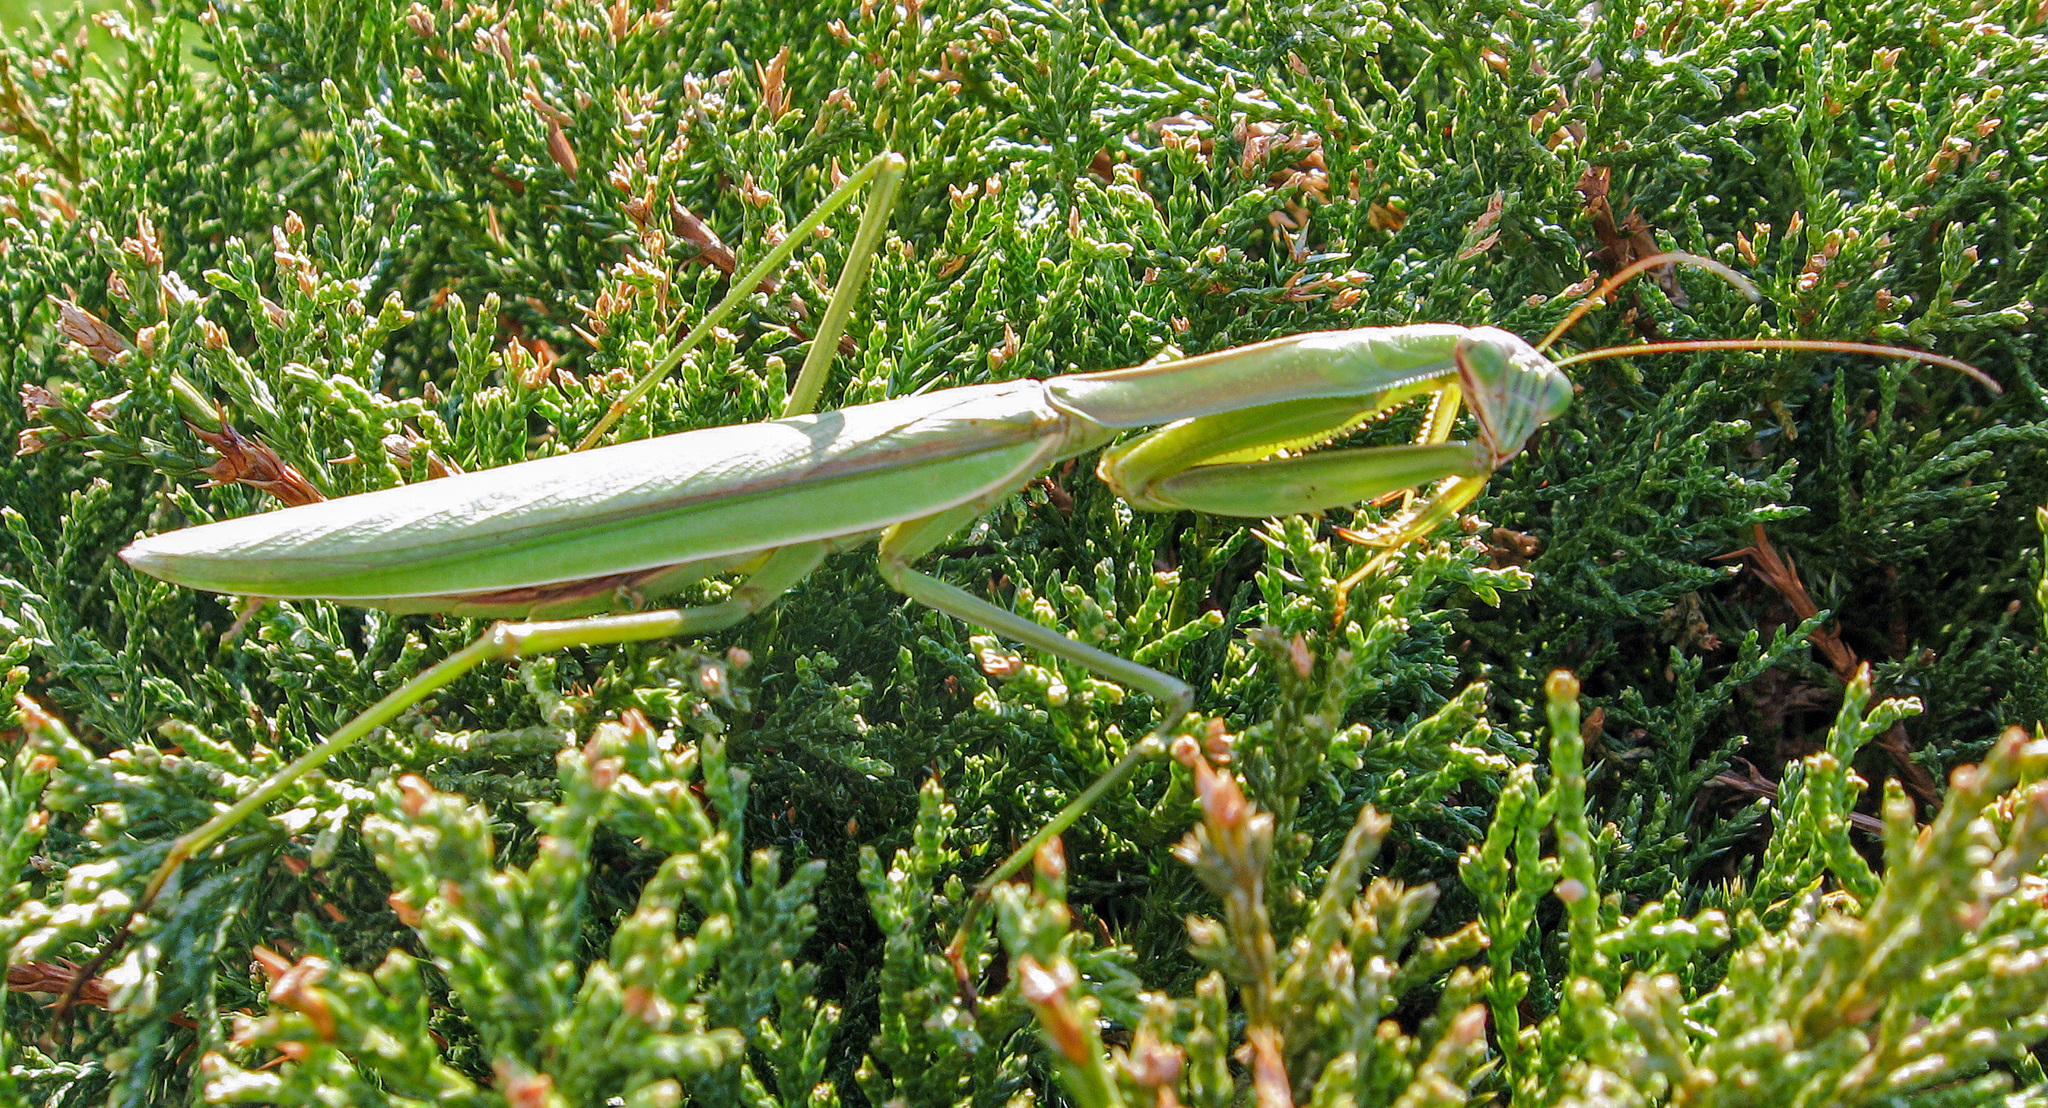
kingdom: Animalia
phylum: Arthropoda
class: Insecta
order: Mantodea
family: Mantidae
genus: Tenodera
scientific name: Tenodera sinensis
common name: Chinese mantis
